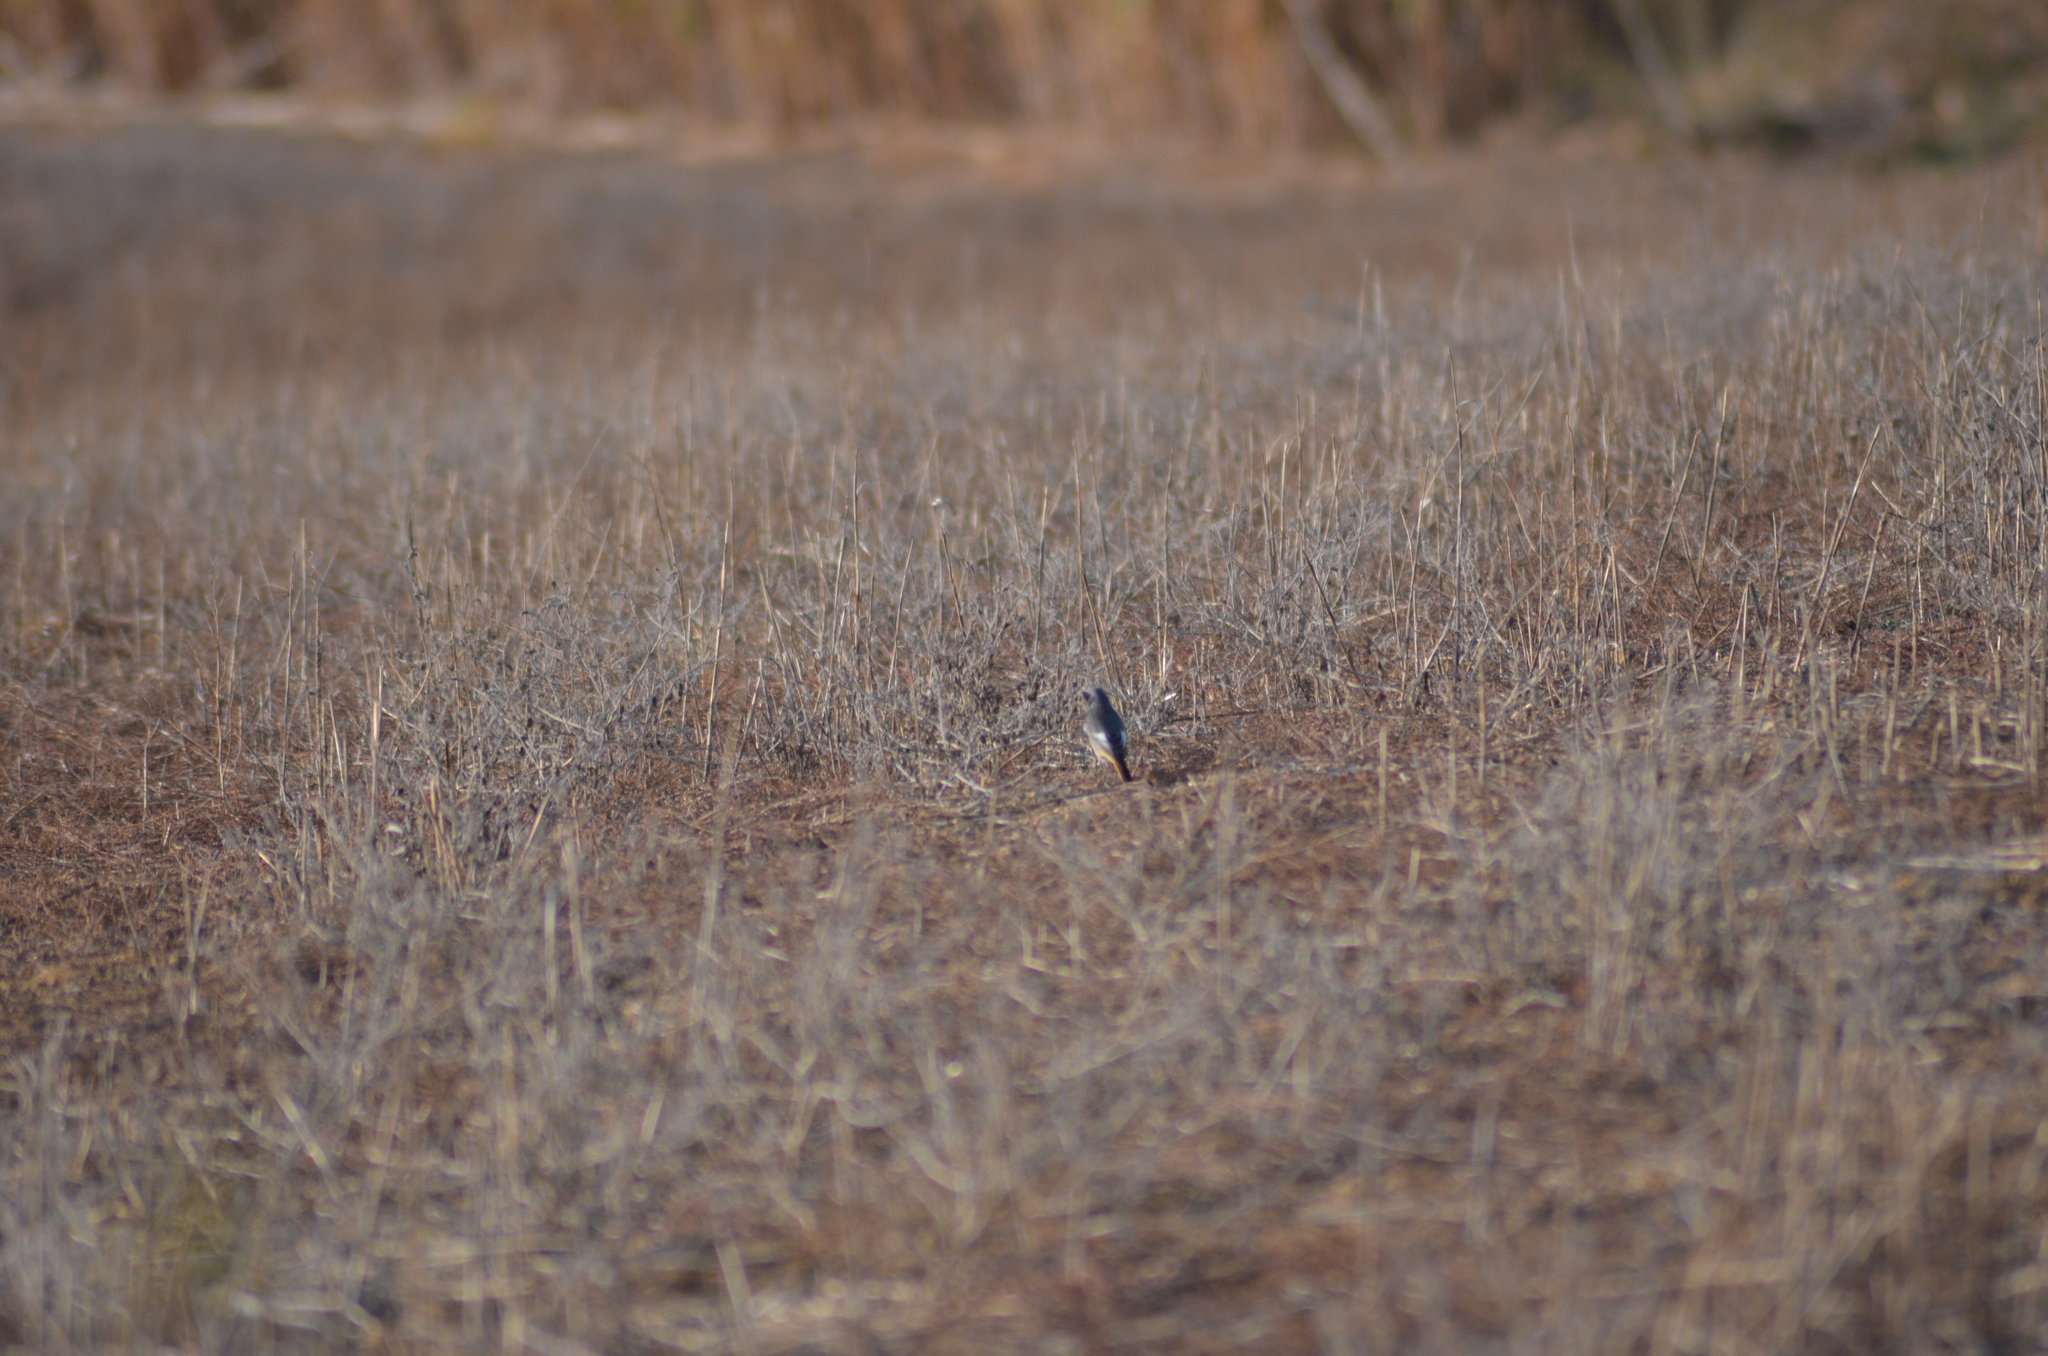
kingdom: Animalia
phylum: Chordata
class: Aves
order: Passeriformes
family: Muscicapidae
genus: Phoenicurus
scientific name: Phoenicurus ochruros
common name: Black redstart
